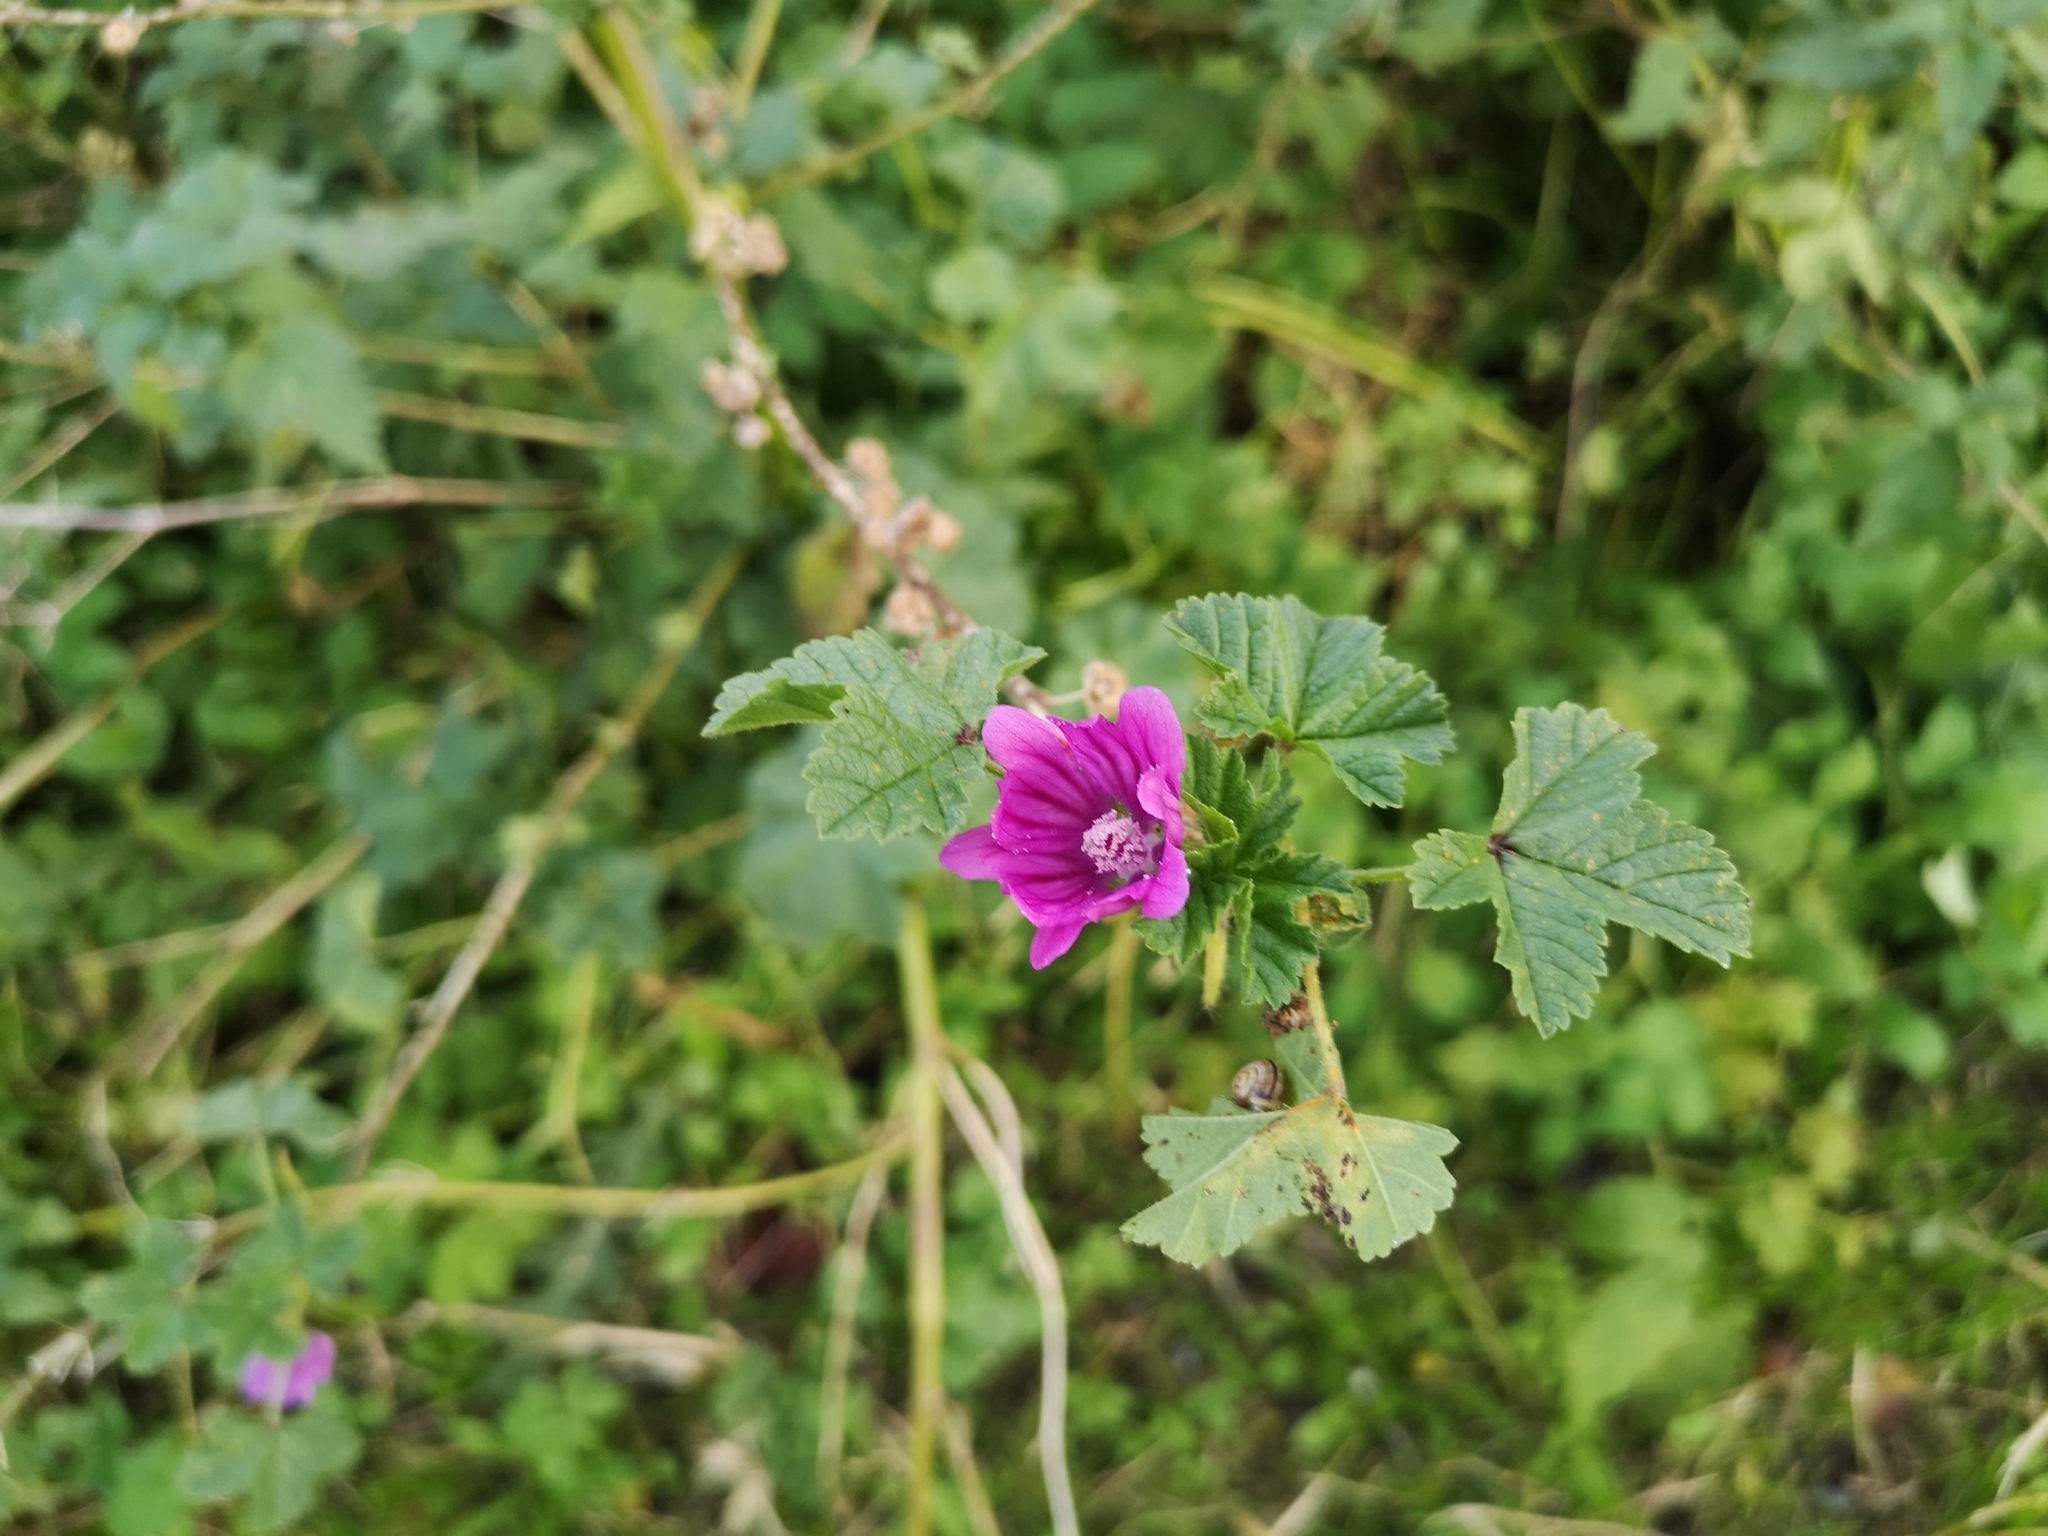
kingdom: Plantae
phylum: Tracheophyta
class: Magnoliopsida
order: Malvales
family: Malvaceae
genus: Malva
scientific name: Malva sylvestris
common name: Common mallow
